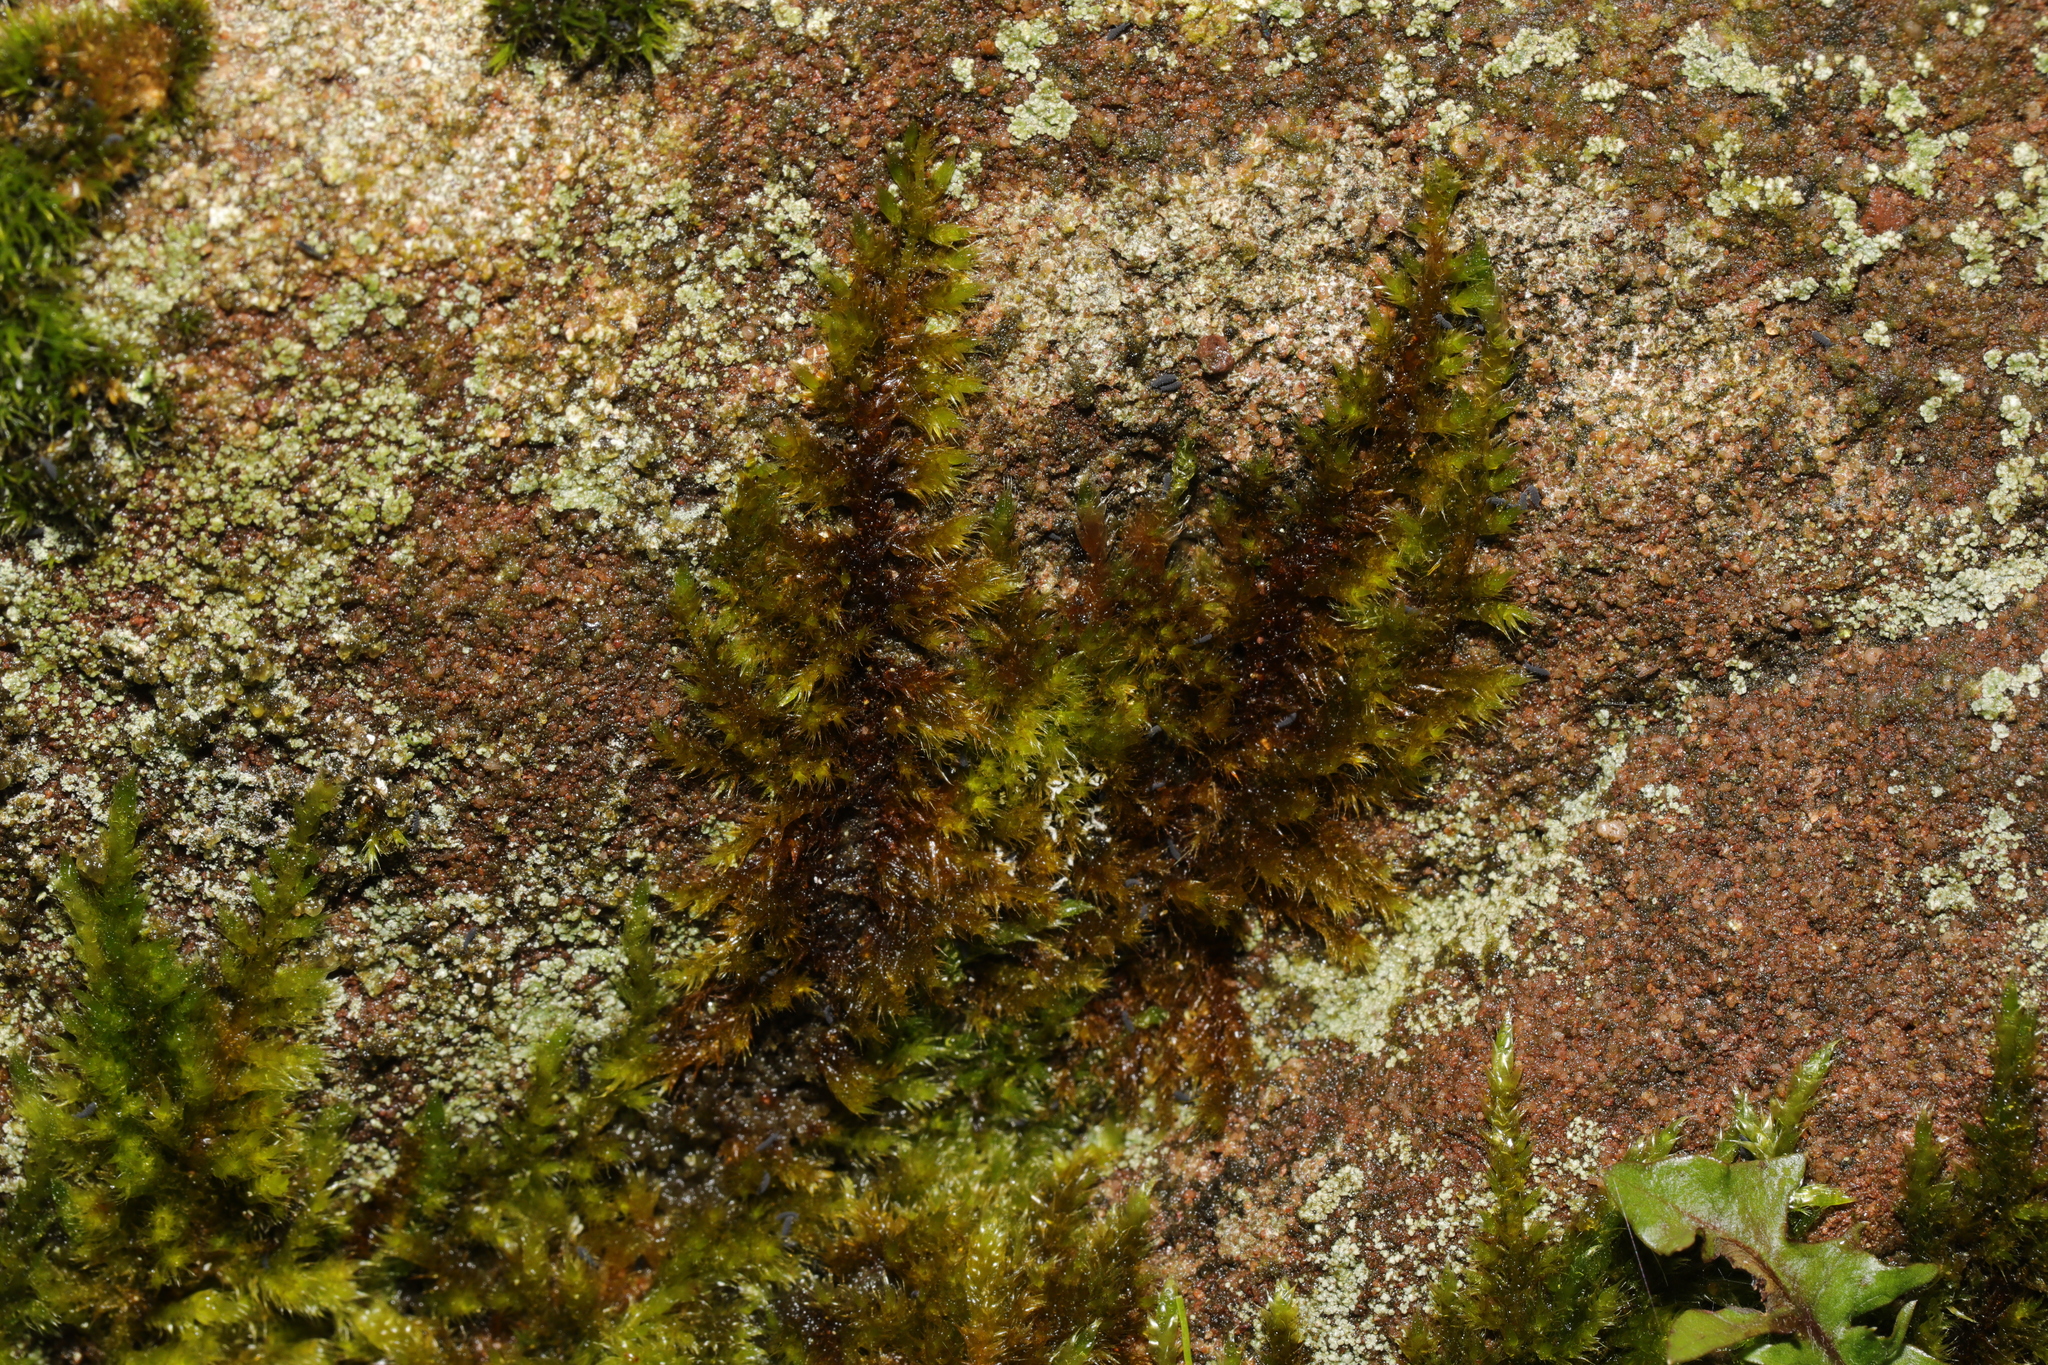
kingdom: Plantae
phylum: Bryophyta
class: Bryopsida
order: Hypnales
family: Brachytheciaceae
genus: Homalothecium
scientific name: Homalothecium sericeum
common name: Silky wall feather-moss
